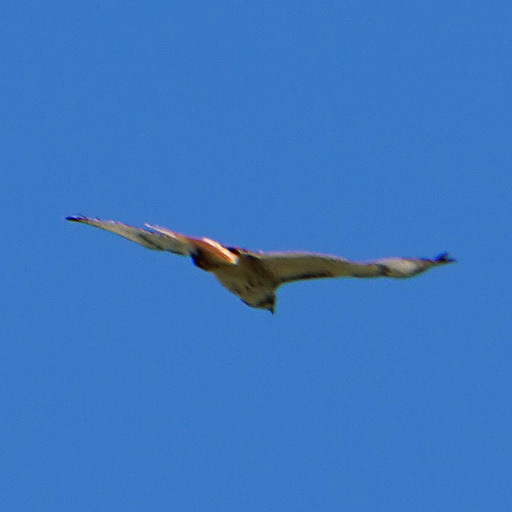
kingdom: Animalia
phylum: Chordata
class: Aves
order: Accipitriformes
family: Accipitridae
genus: Buteo
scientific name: Buteo jamaicensis
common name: Red-tailed hawk
